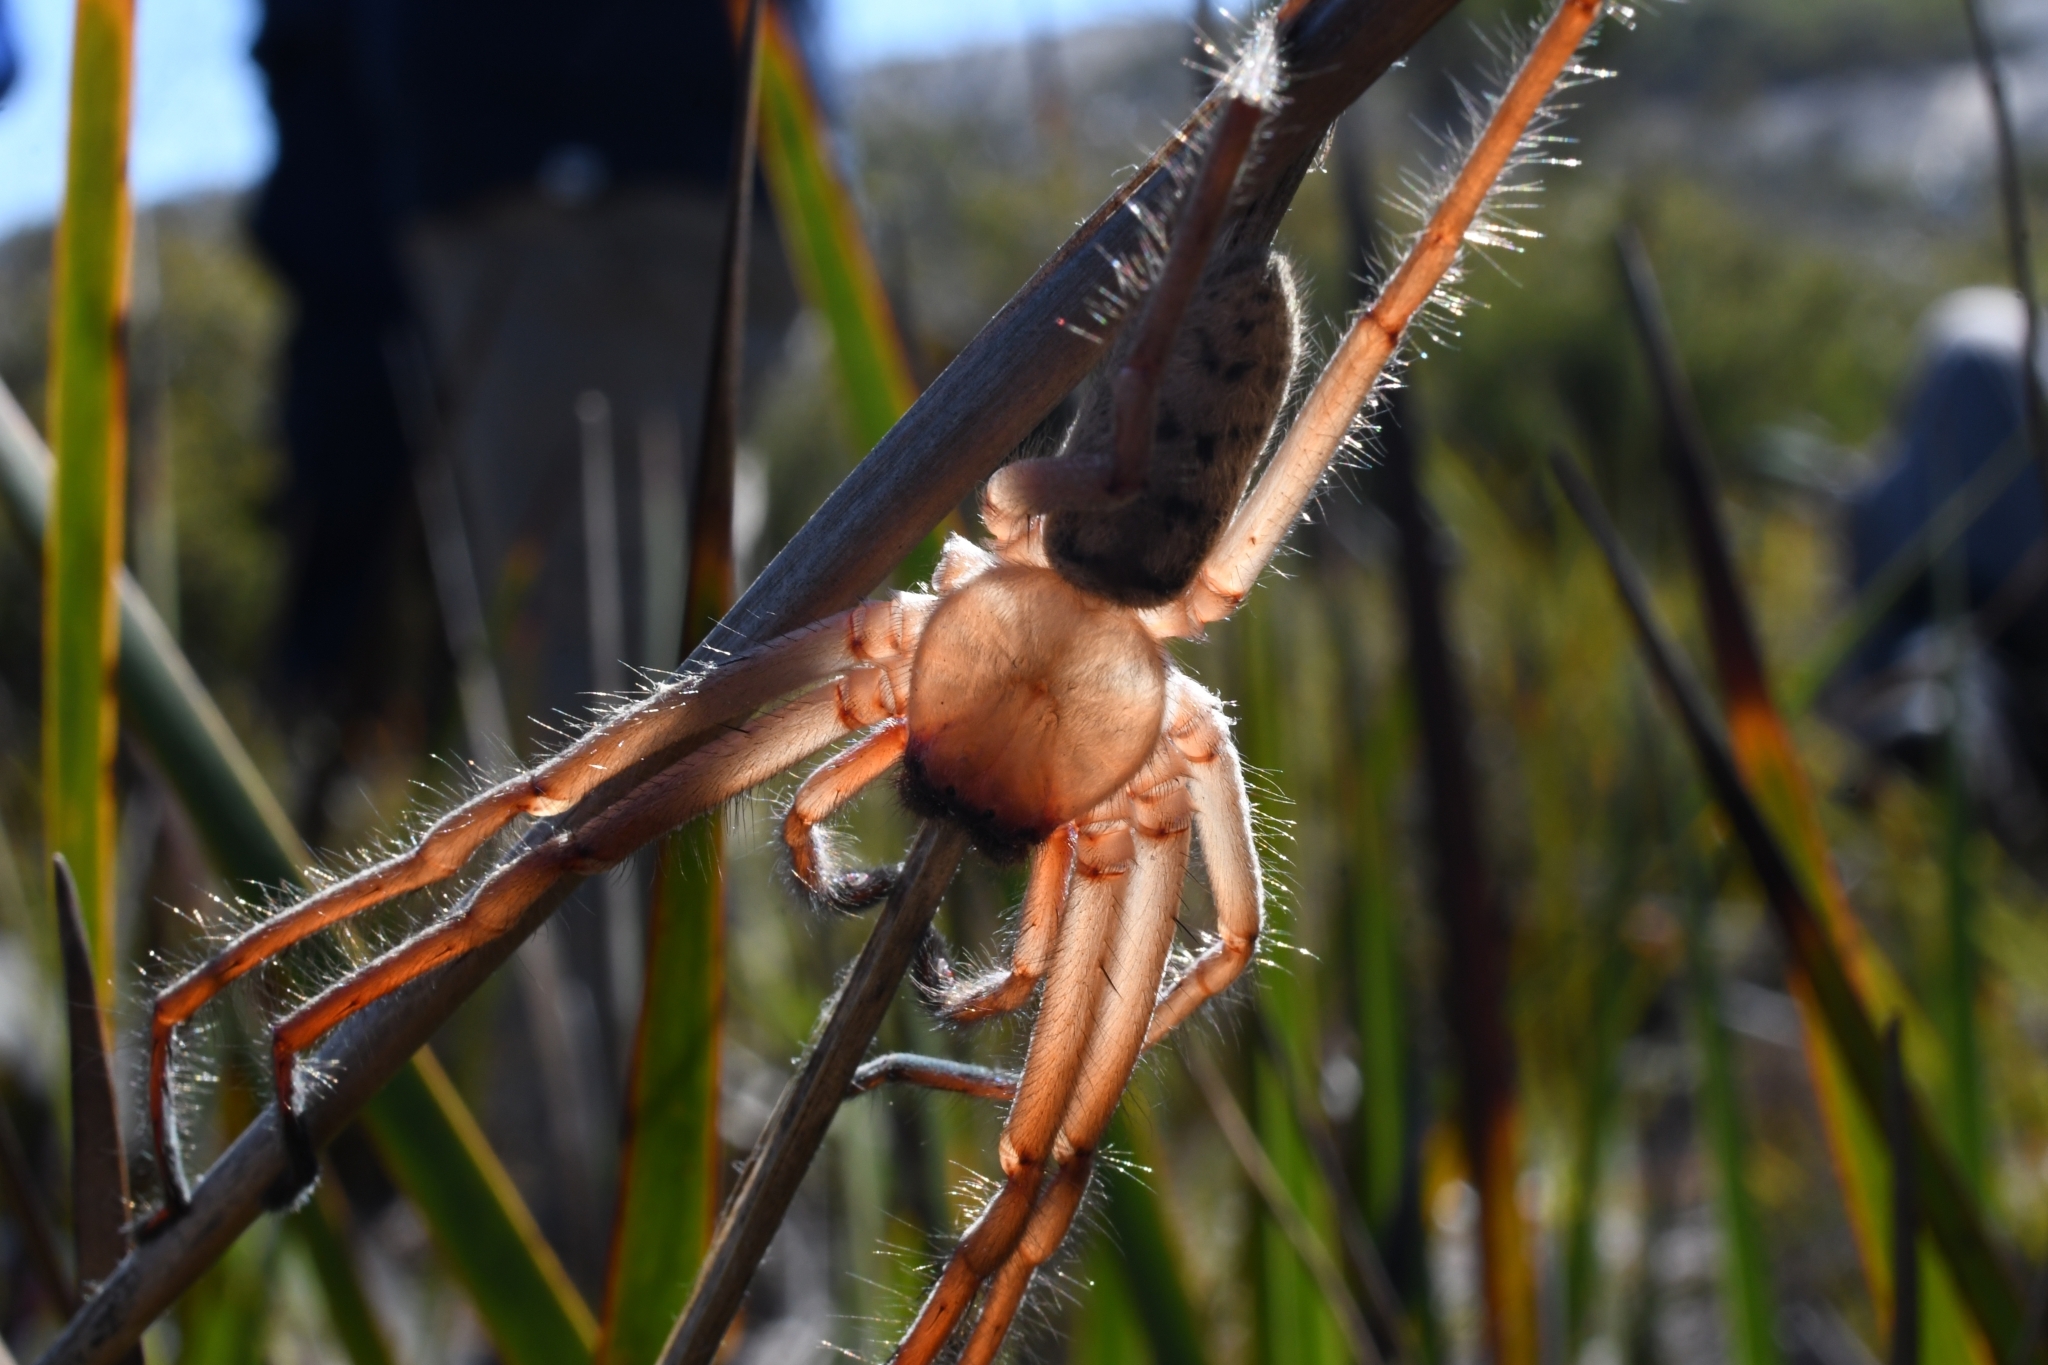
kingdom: Animalia
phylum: Arthropoda
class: Arachnida
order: Araneae
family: Sparassidae
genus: Delena
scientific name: Delena lapidicola
